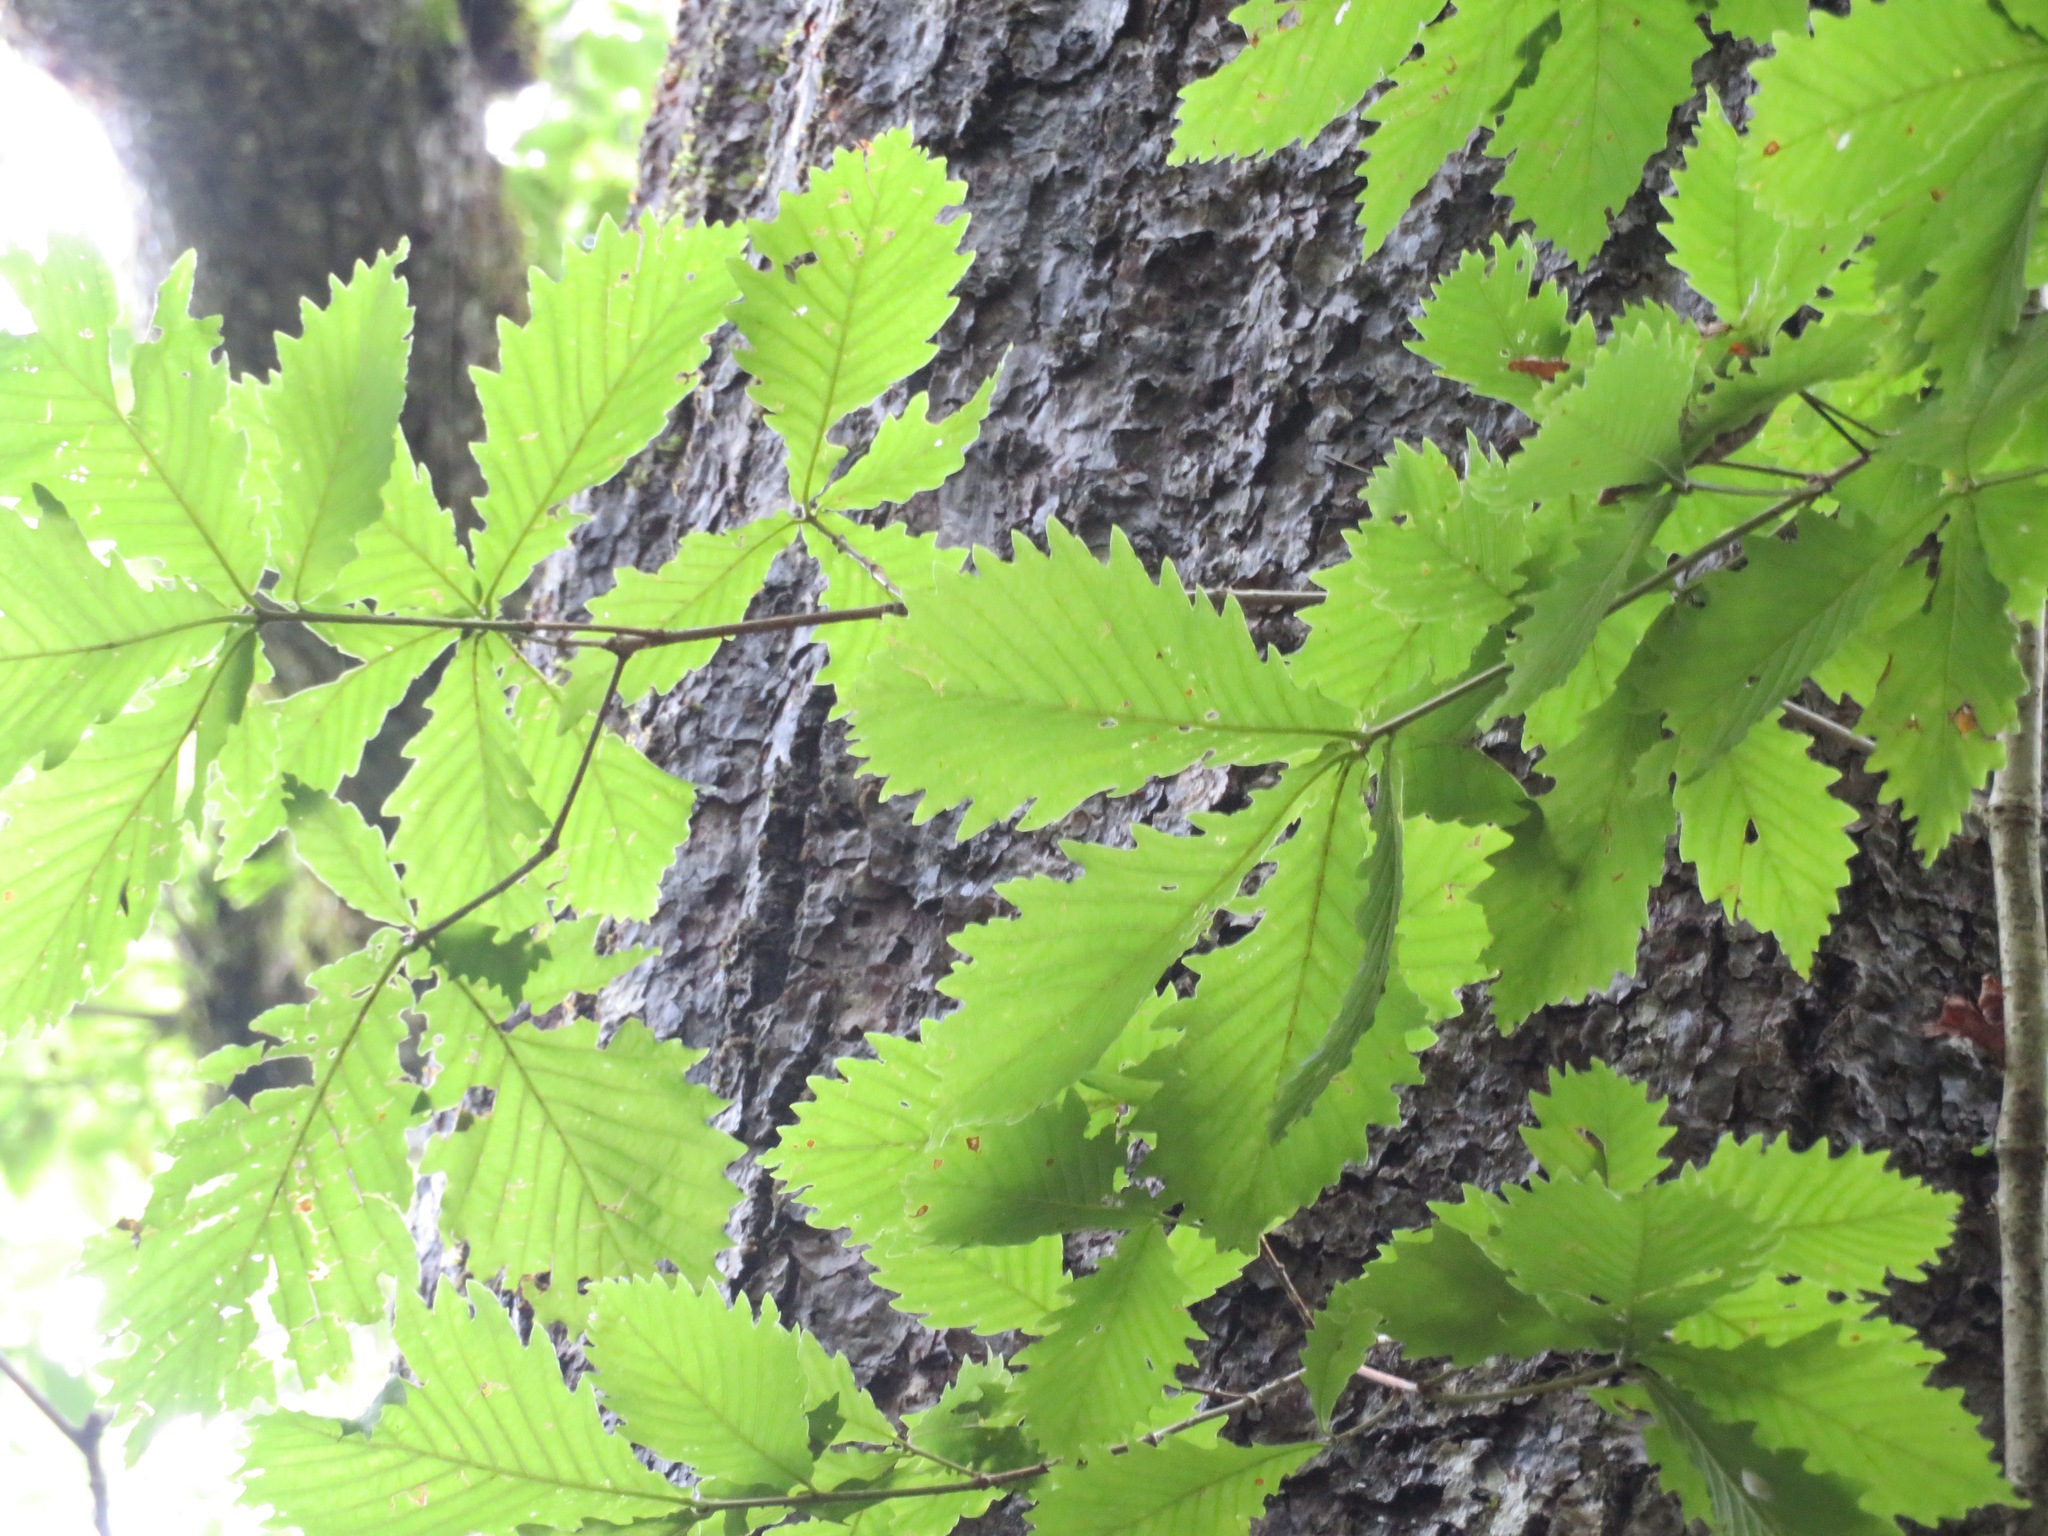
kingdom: Plantae
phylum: Tracheophyta
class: Magnoliopsida
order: Fagales
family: Fagaceae
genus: Quercus
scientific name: Quercus crispula
